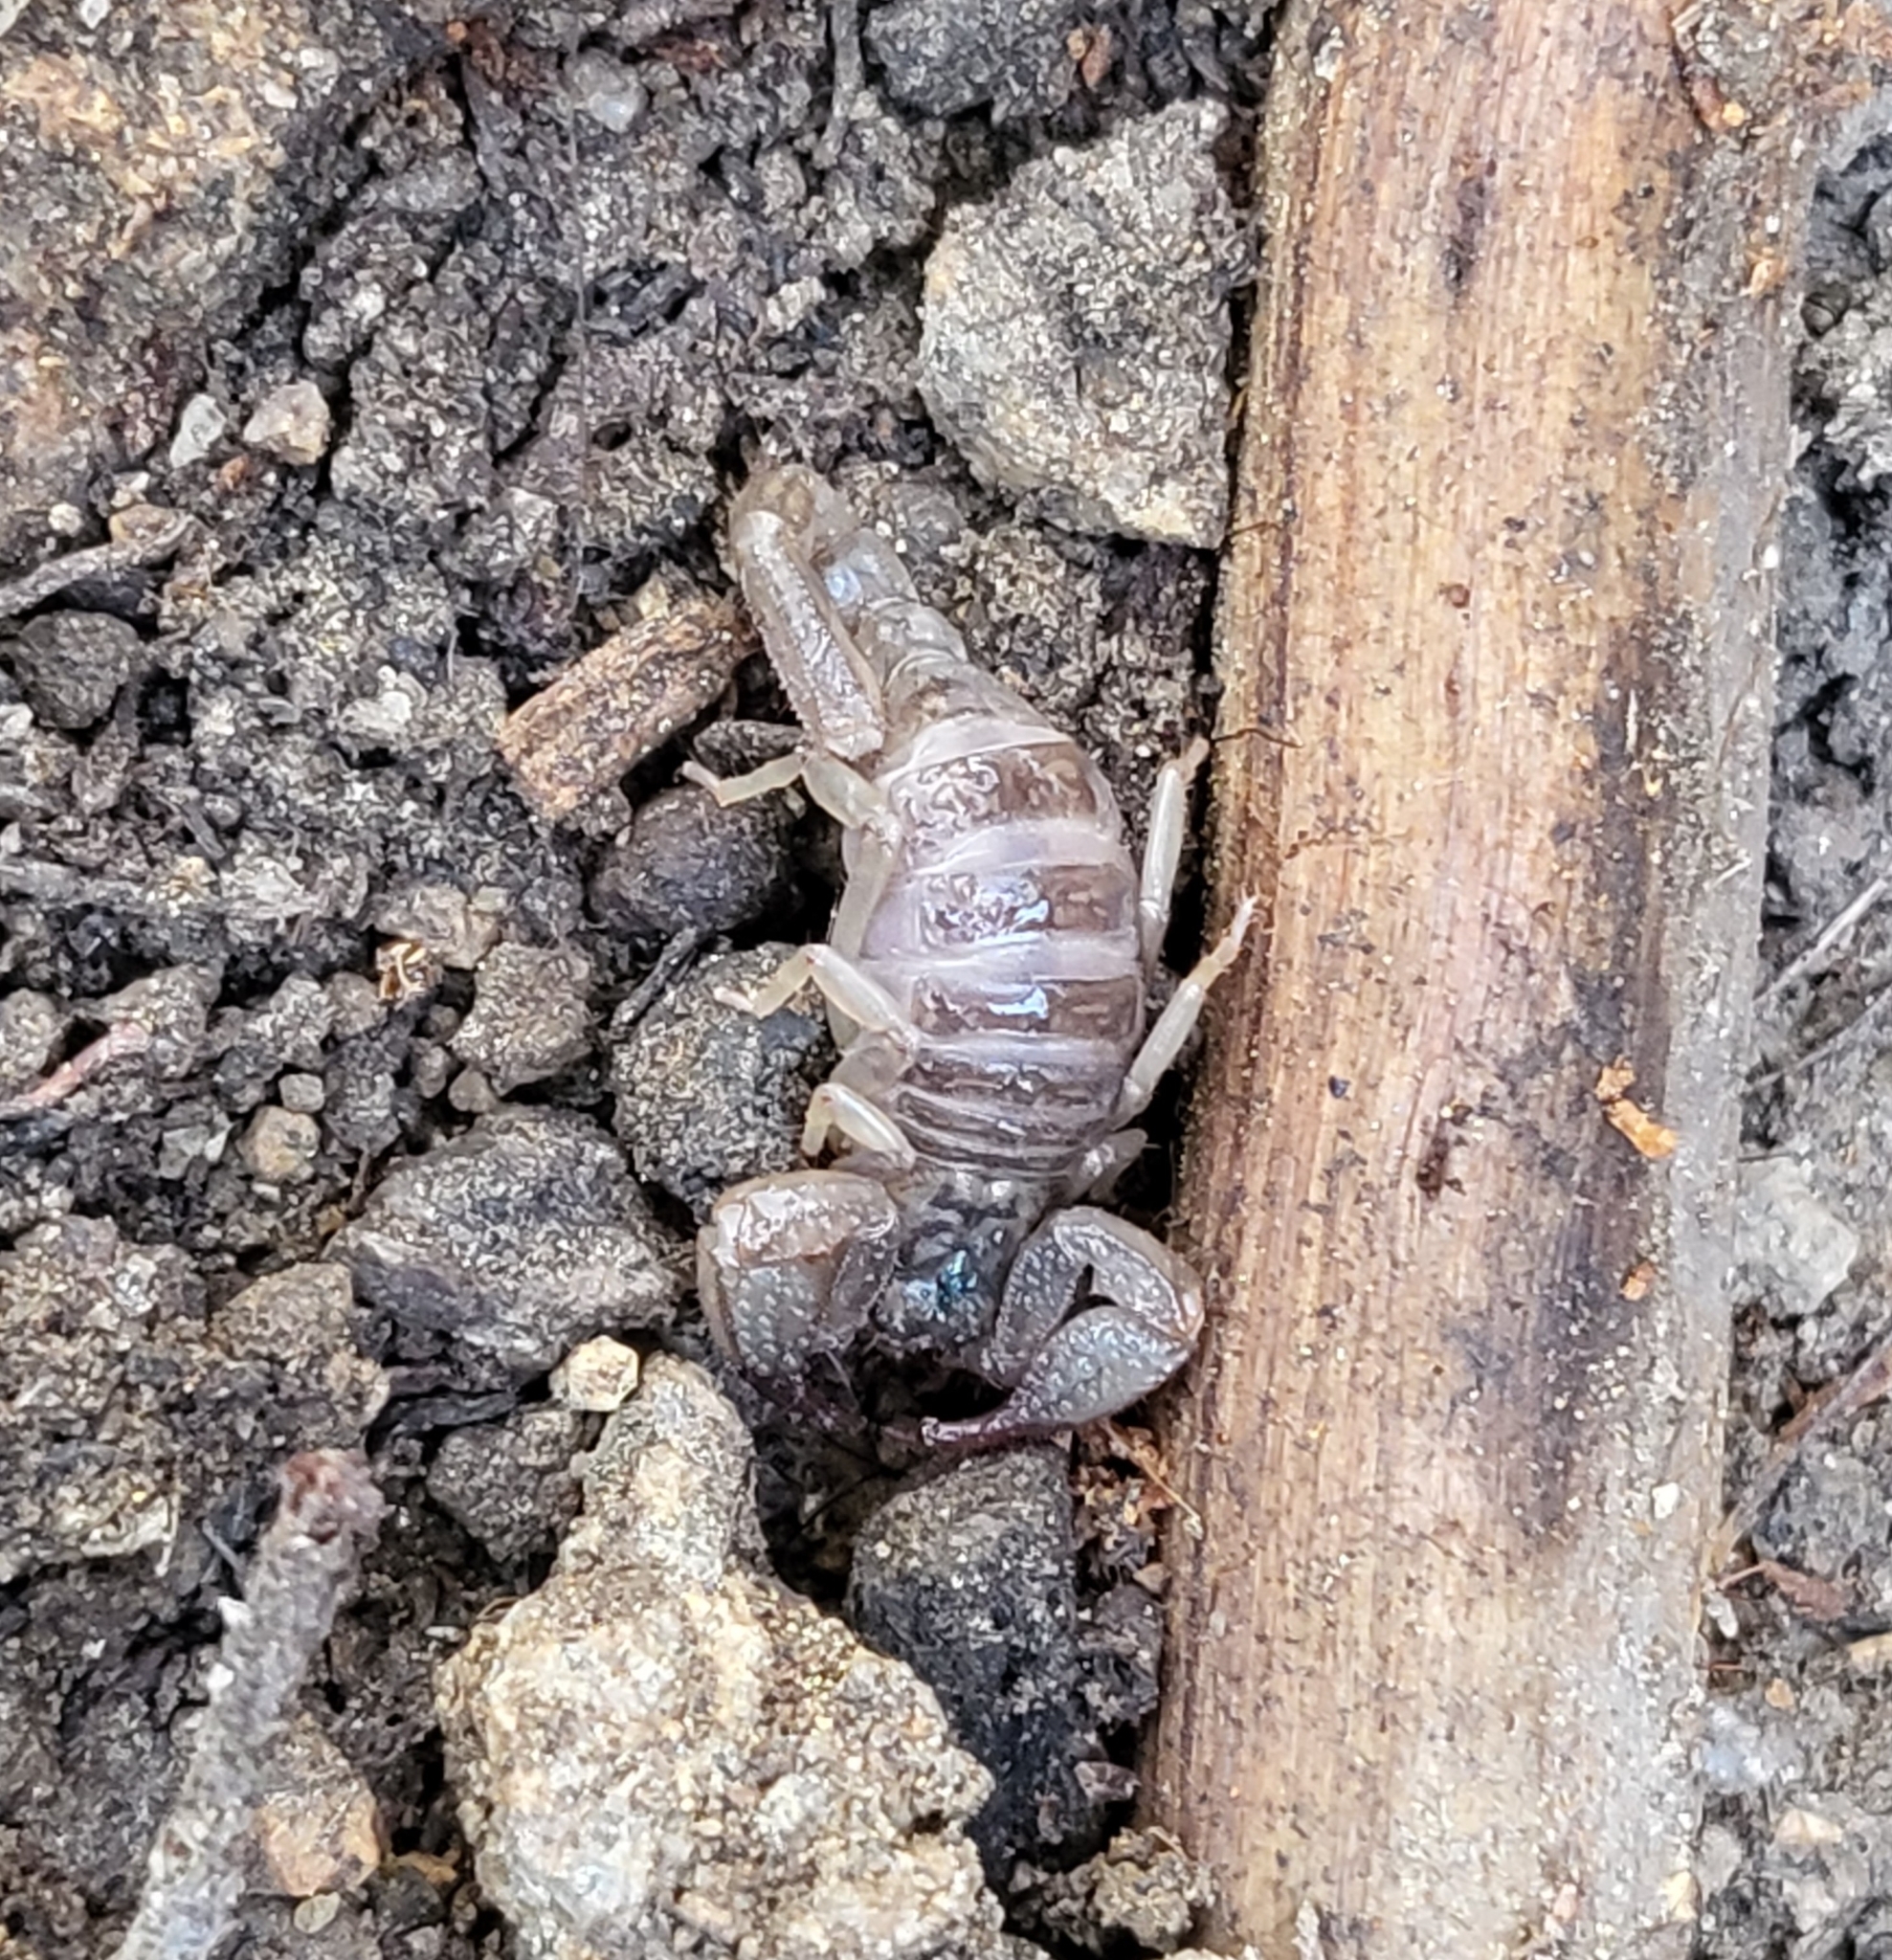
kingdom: Animalia
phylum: Arthropoda
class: Arachnida
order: Scorpiones
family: Chactidae
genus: Uroctonus
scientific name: Uroctonus mordax
